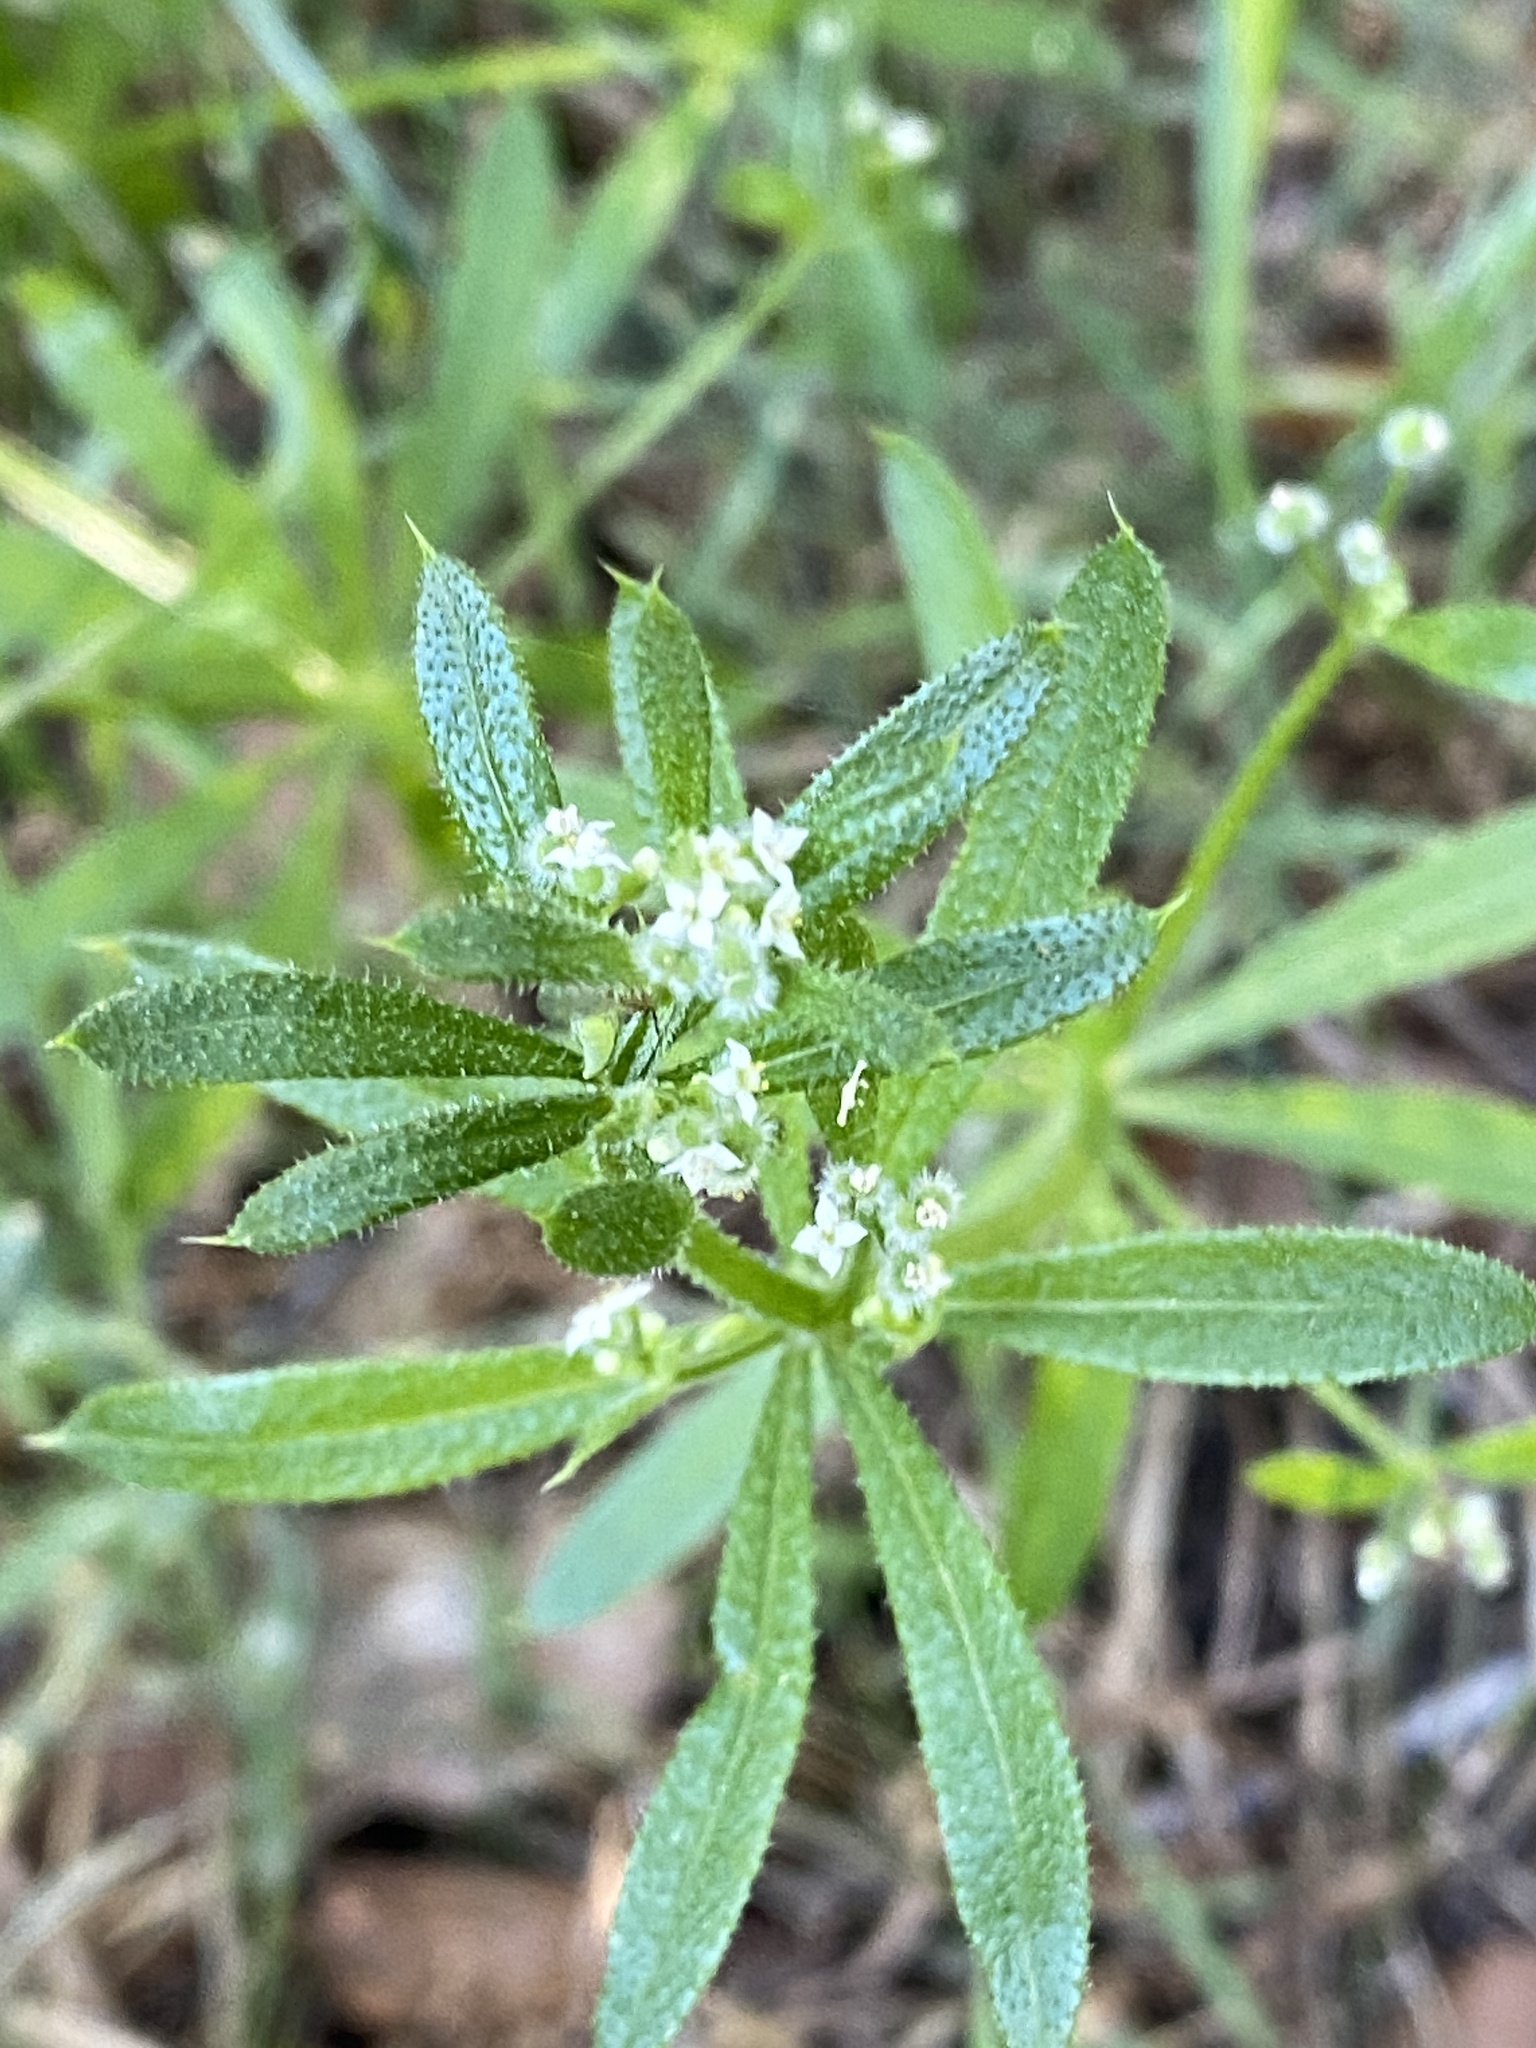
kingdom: Plantae
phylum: Tracheophyta
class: Magnoliopsida
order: Gentianales
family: Rubiaceae
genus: Galium
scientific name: Galium aparine
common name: Cleavers
